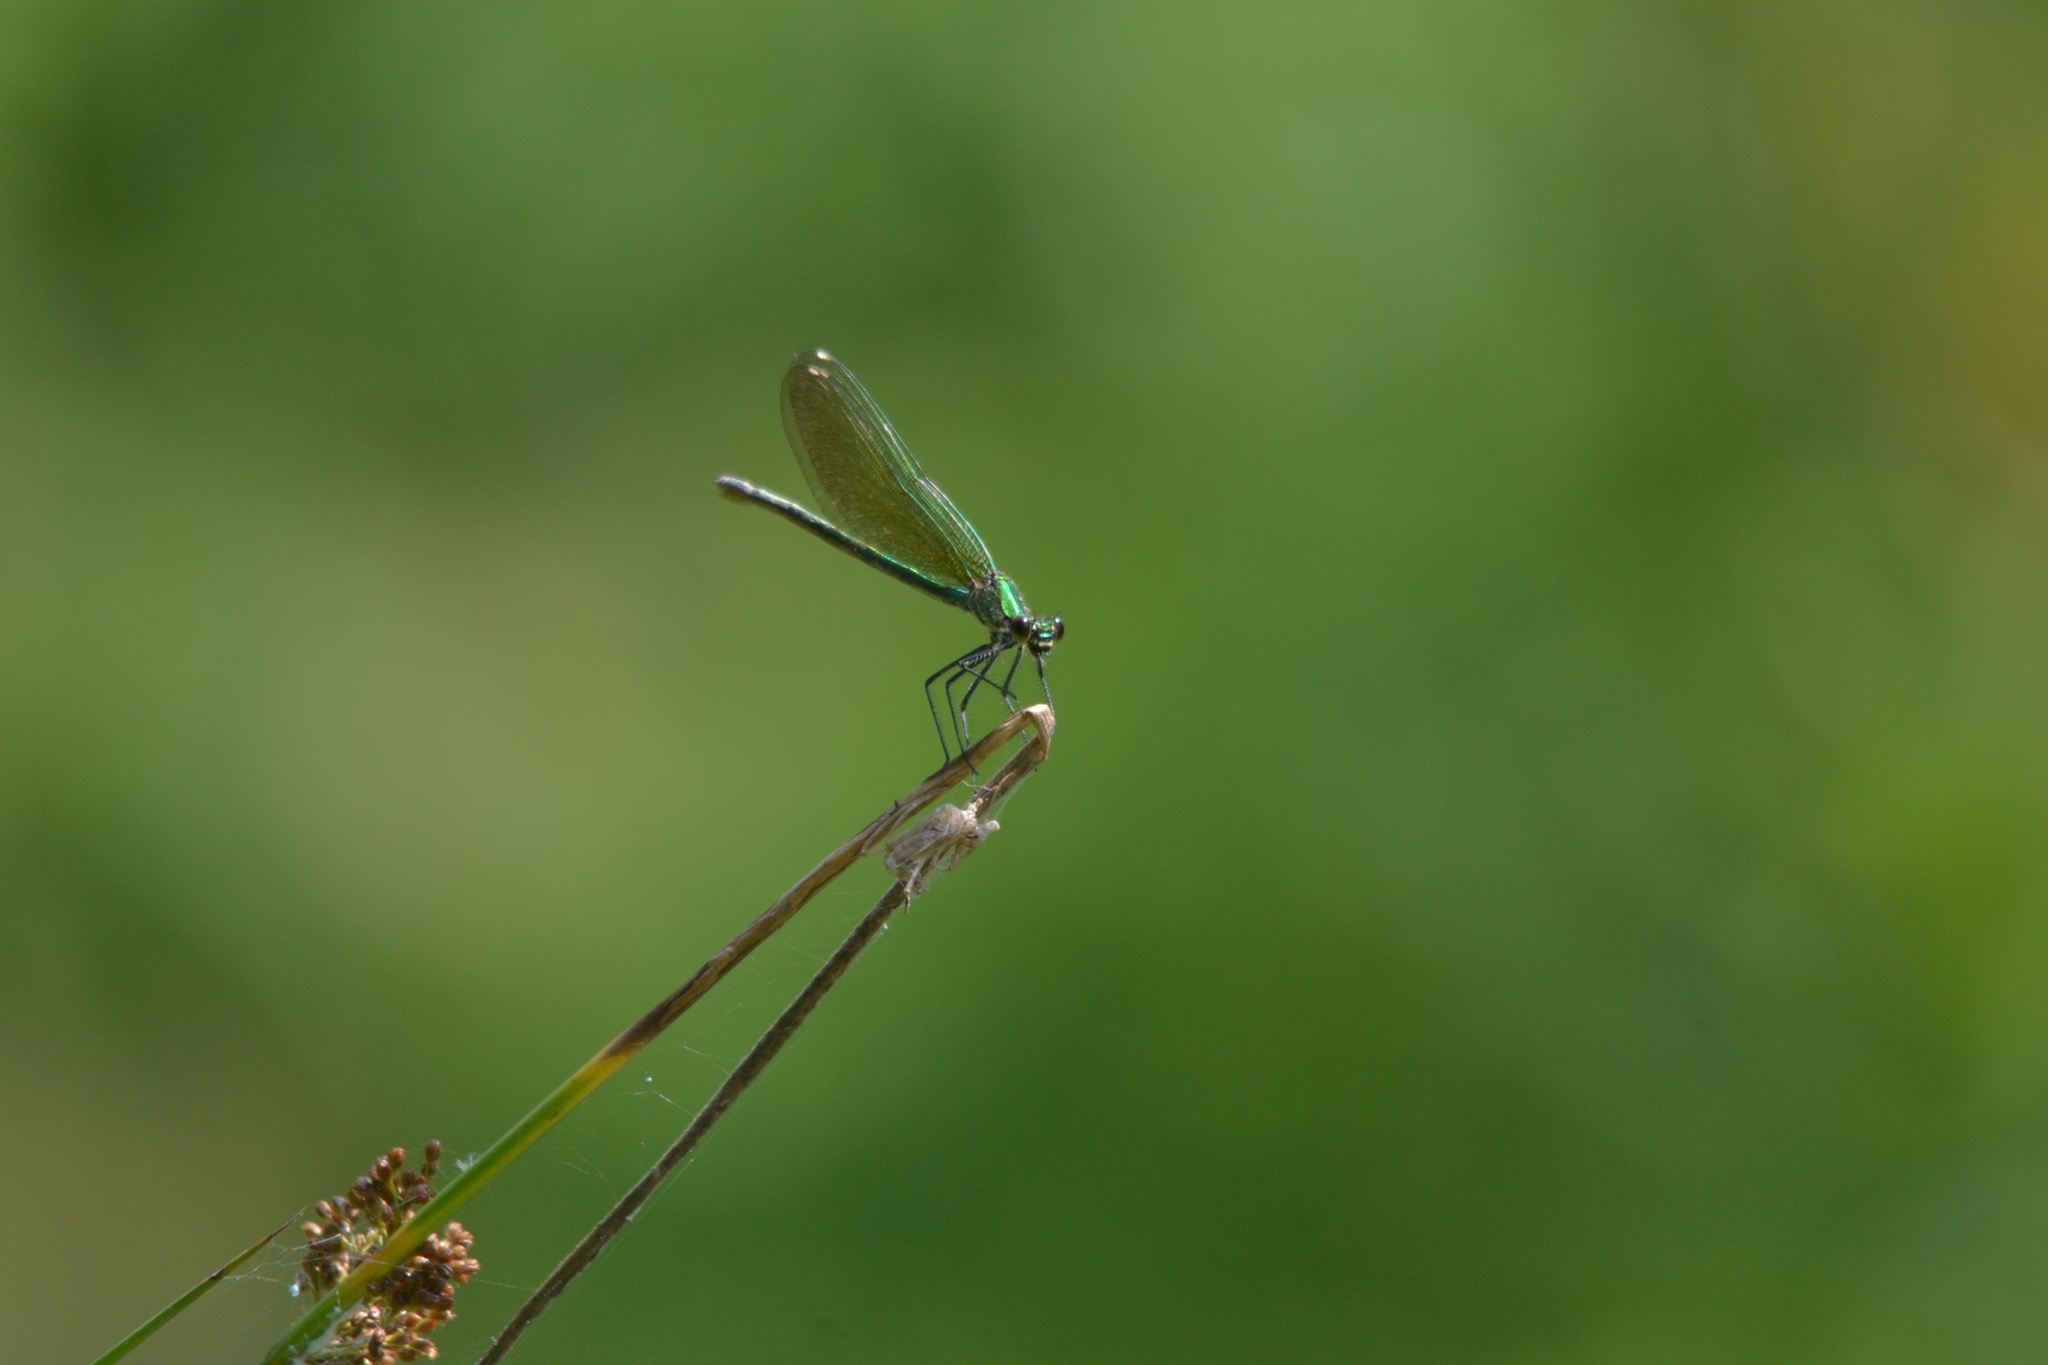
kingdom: Animalia
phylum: Arthropoda
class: Insecta
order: Odonata
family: Calopterygidae
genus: Calopteryx
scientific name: Calopteryx splendens
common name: Banded demoiselle
